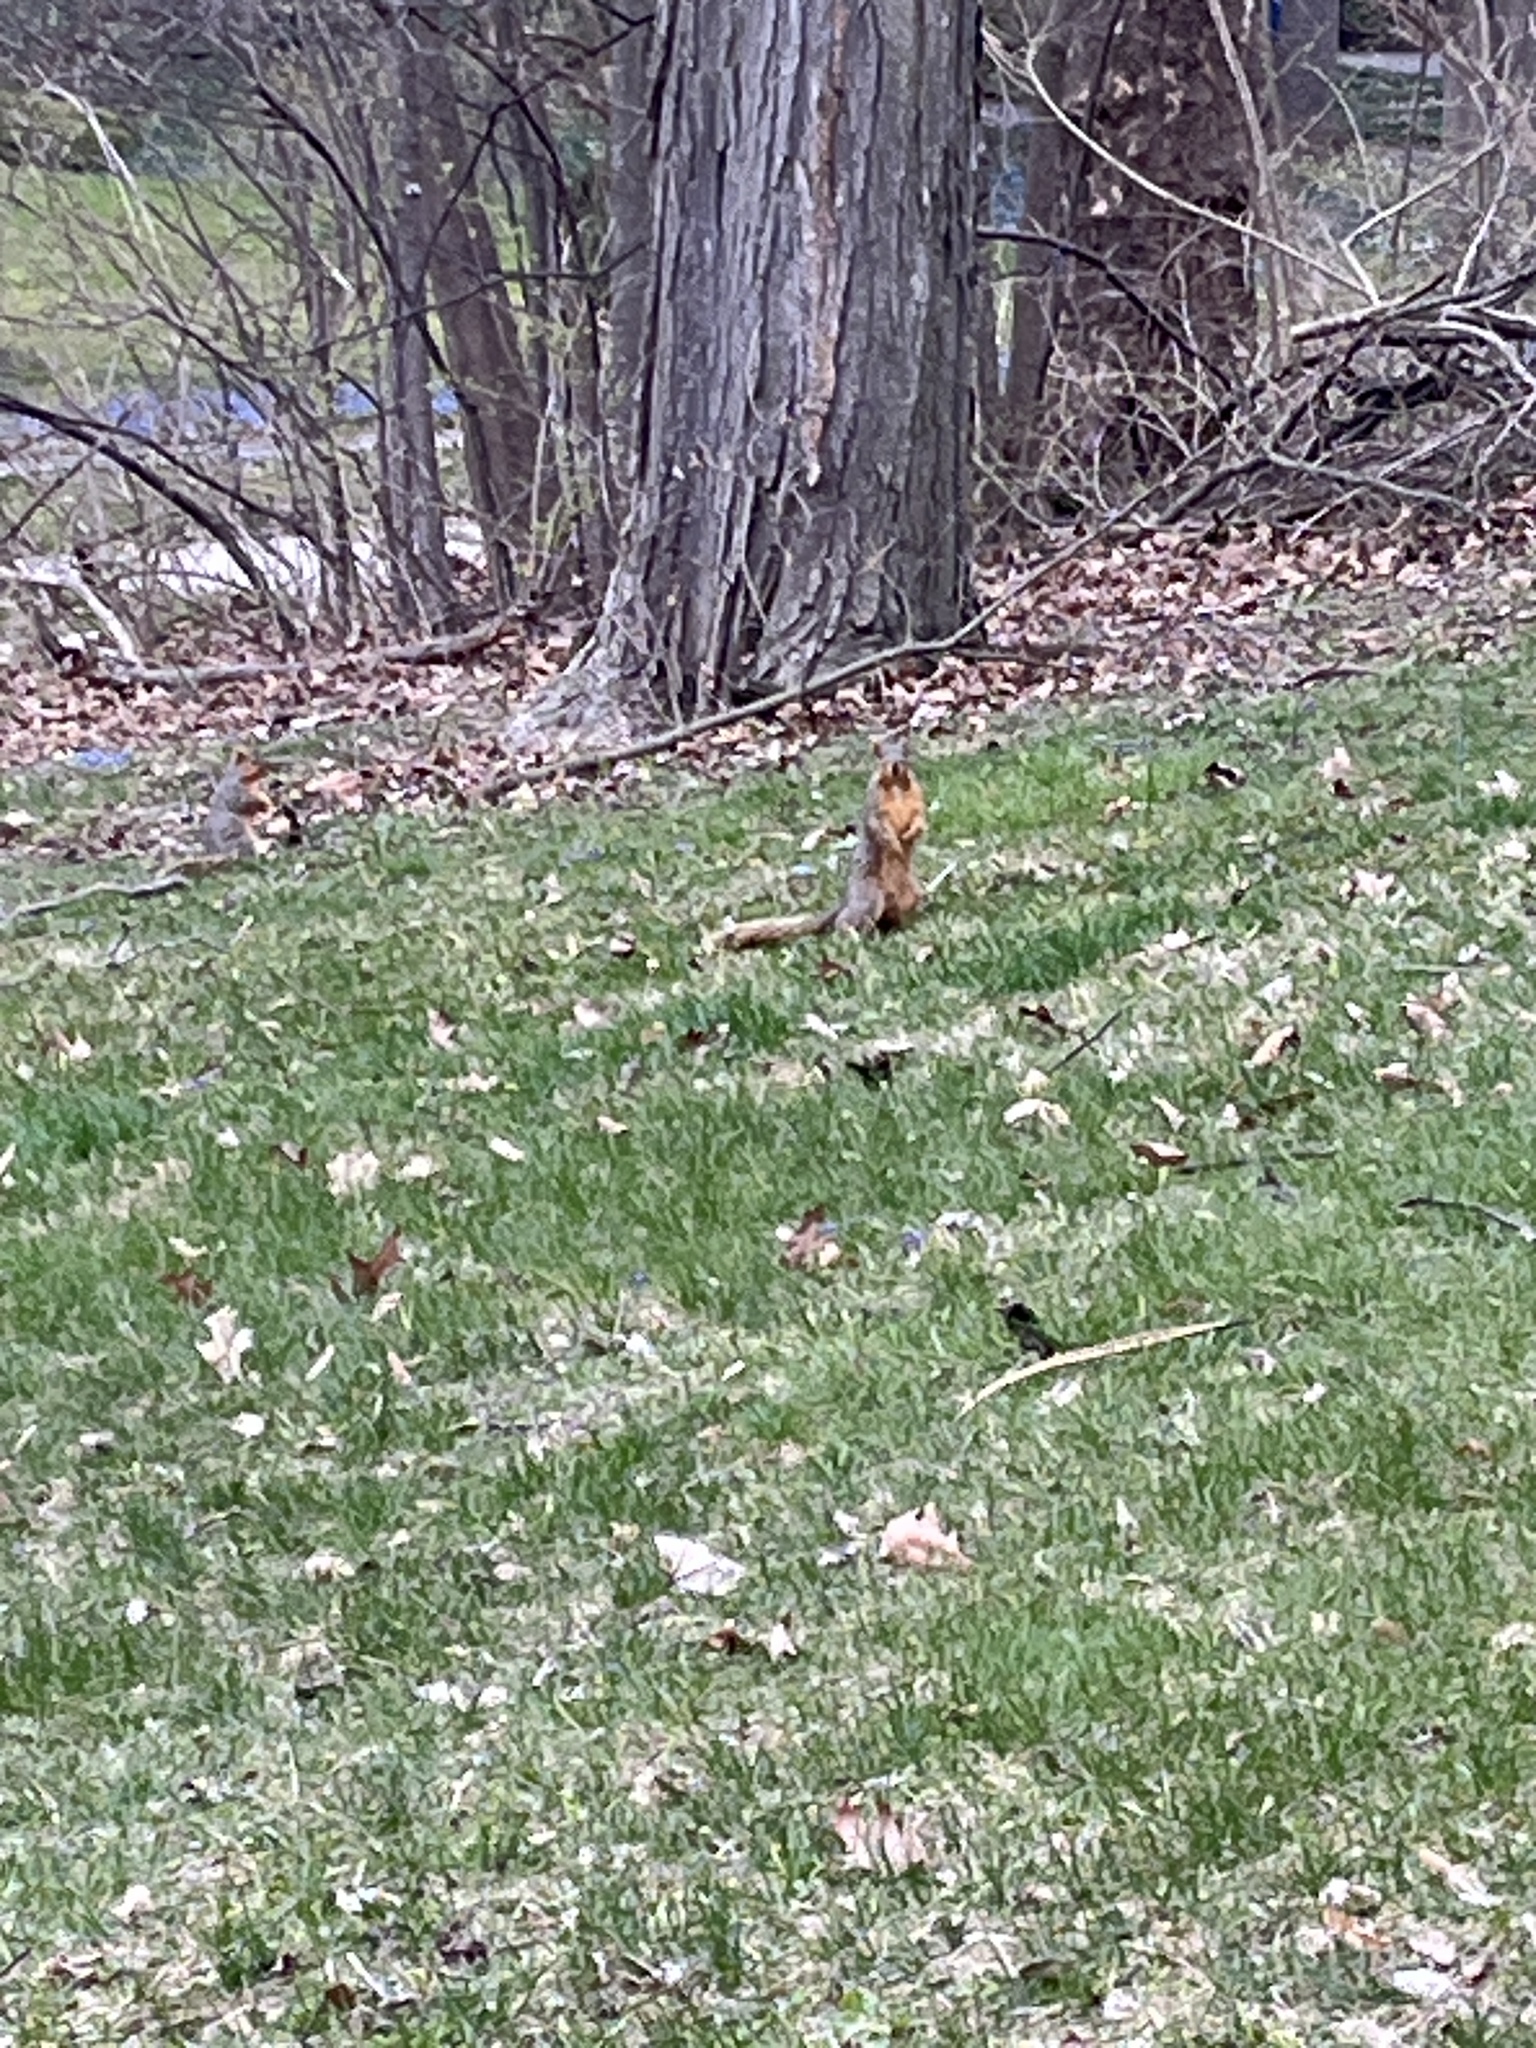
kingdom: Animalia
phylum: Chordata
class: Mammalia
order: Rodentia
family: Sciuridae
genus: Sciurus
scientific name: Sciurus niger
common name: Fox squirrel
